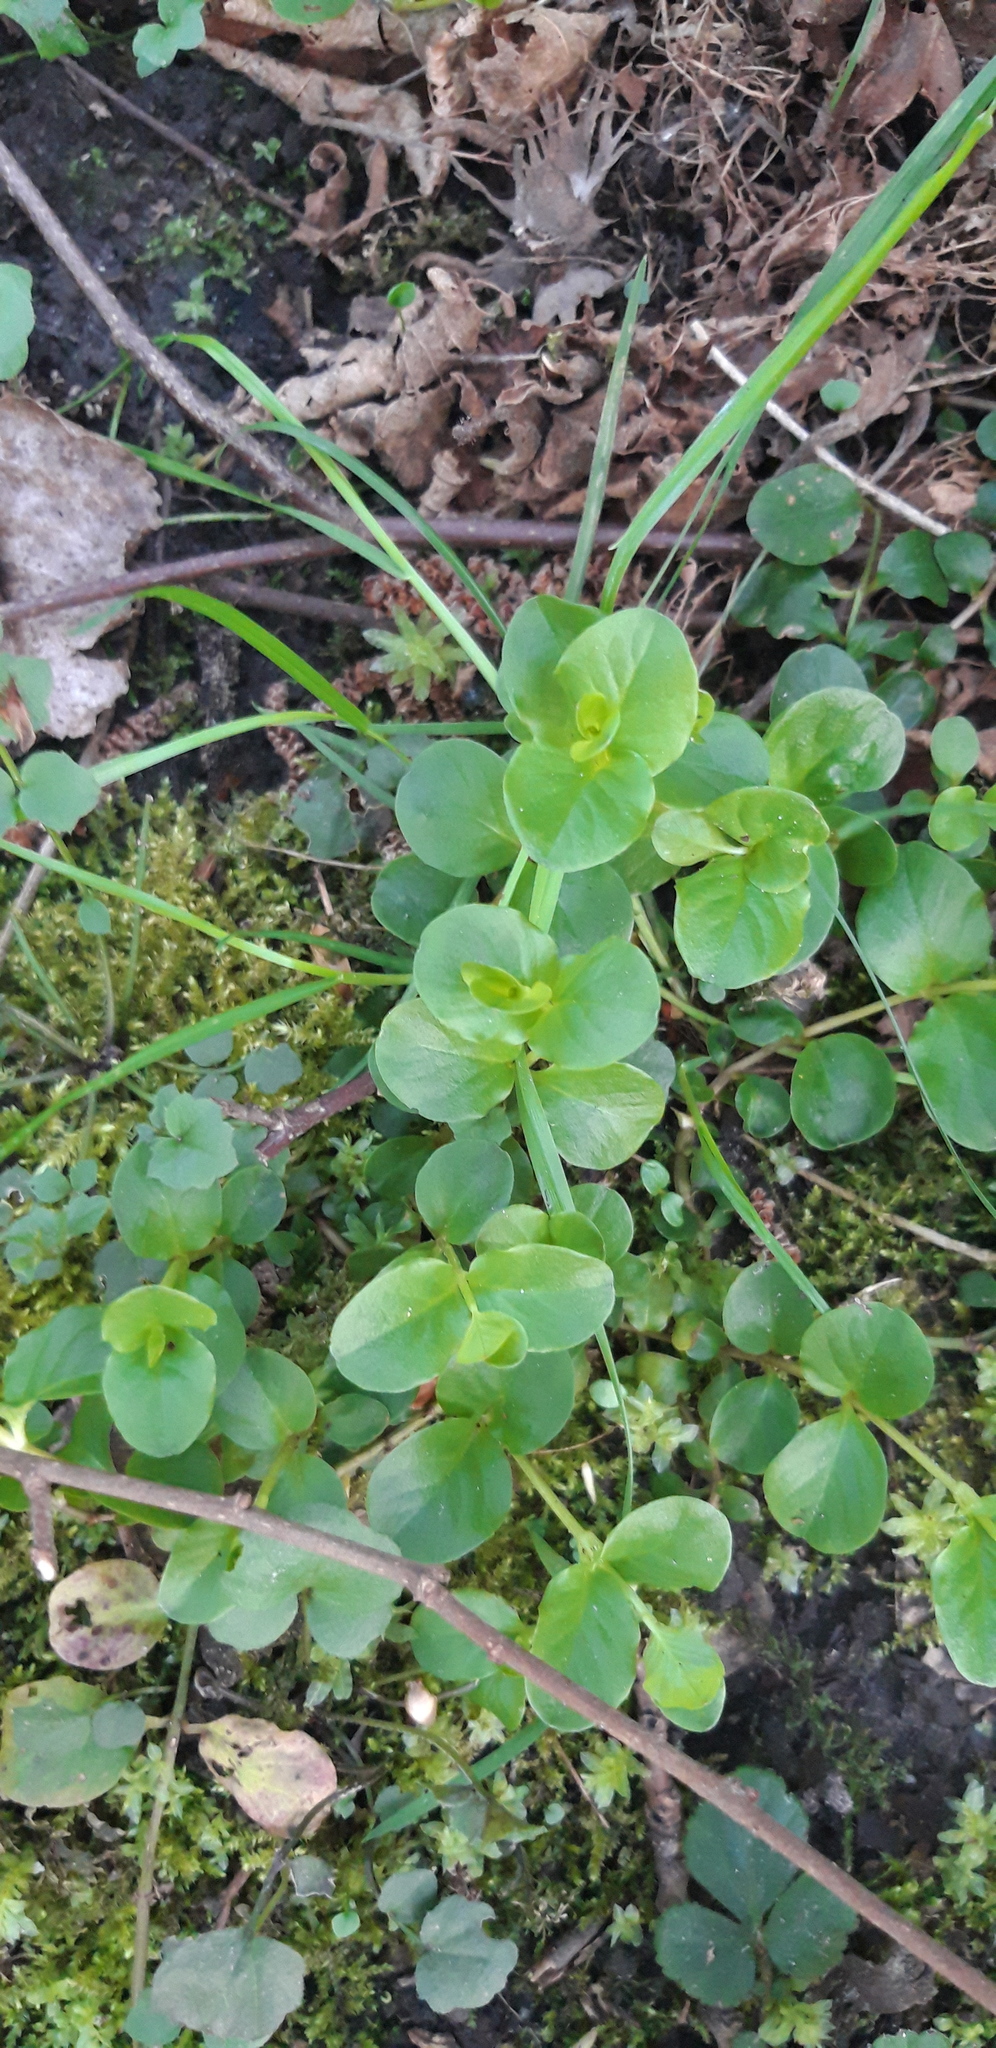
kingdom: Plantae
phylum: Tracheophyta
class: Magnoliopsida
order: Ericales
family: Primulaceae
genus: Lysimachia
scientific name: Lysimachia nummularia
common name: Moneywort
